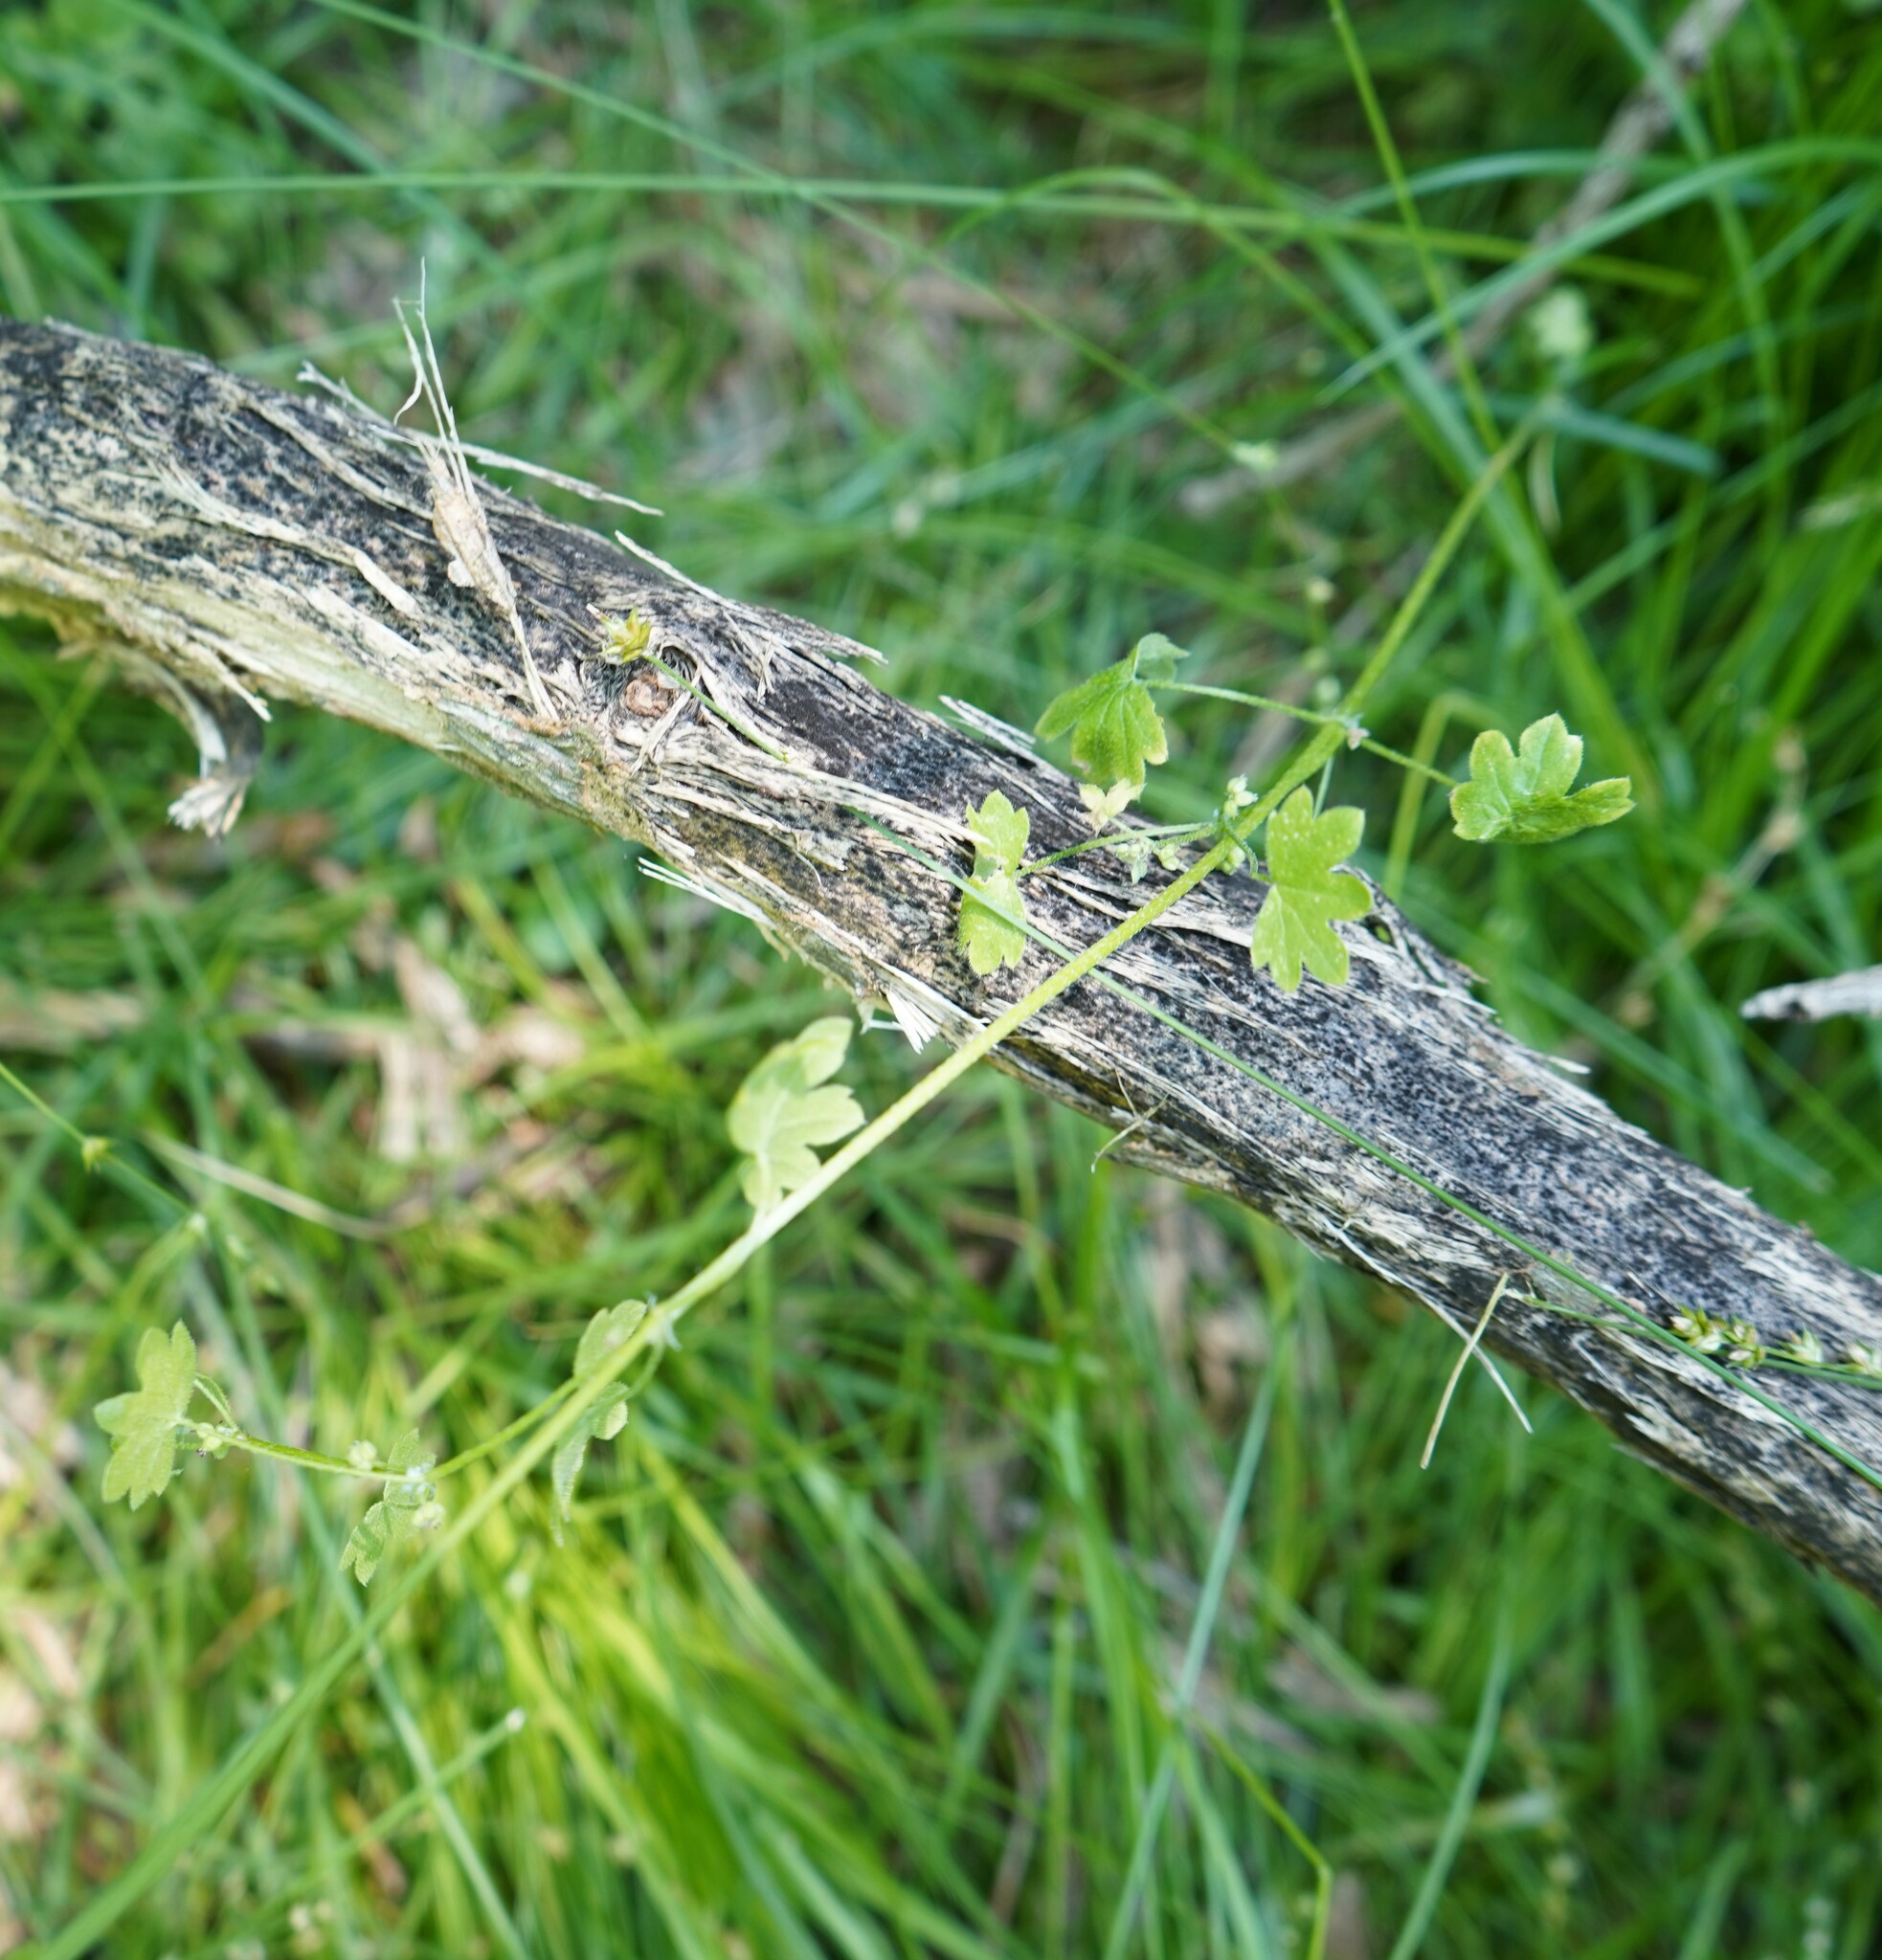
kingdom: Plantae
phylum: Tracheophyta
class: Magnoliopsida
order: Apiales
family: Apiaceae
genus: Bowlesia
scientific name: Bowlesia incana
